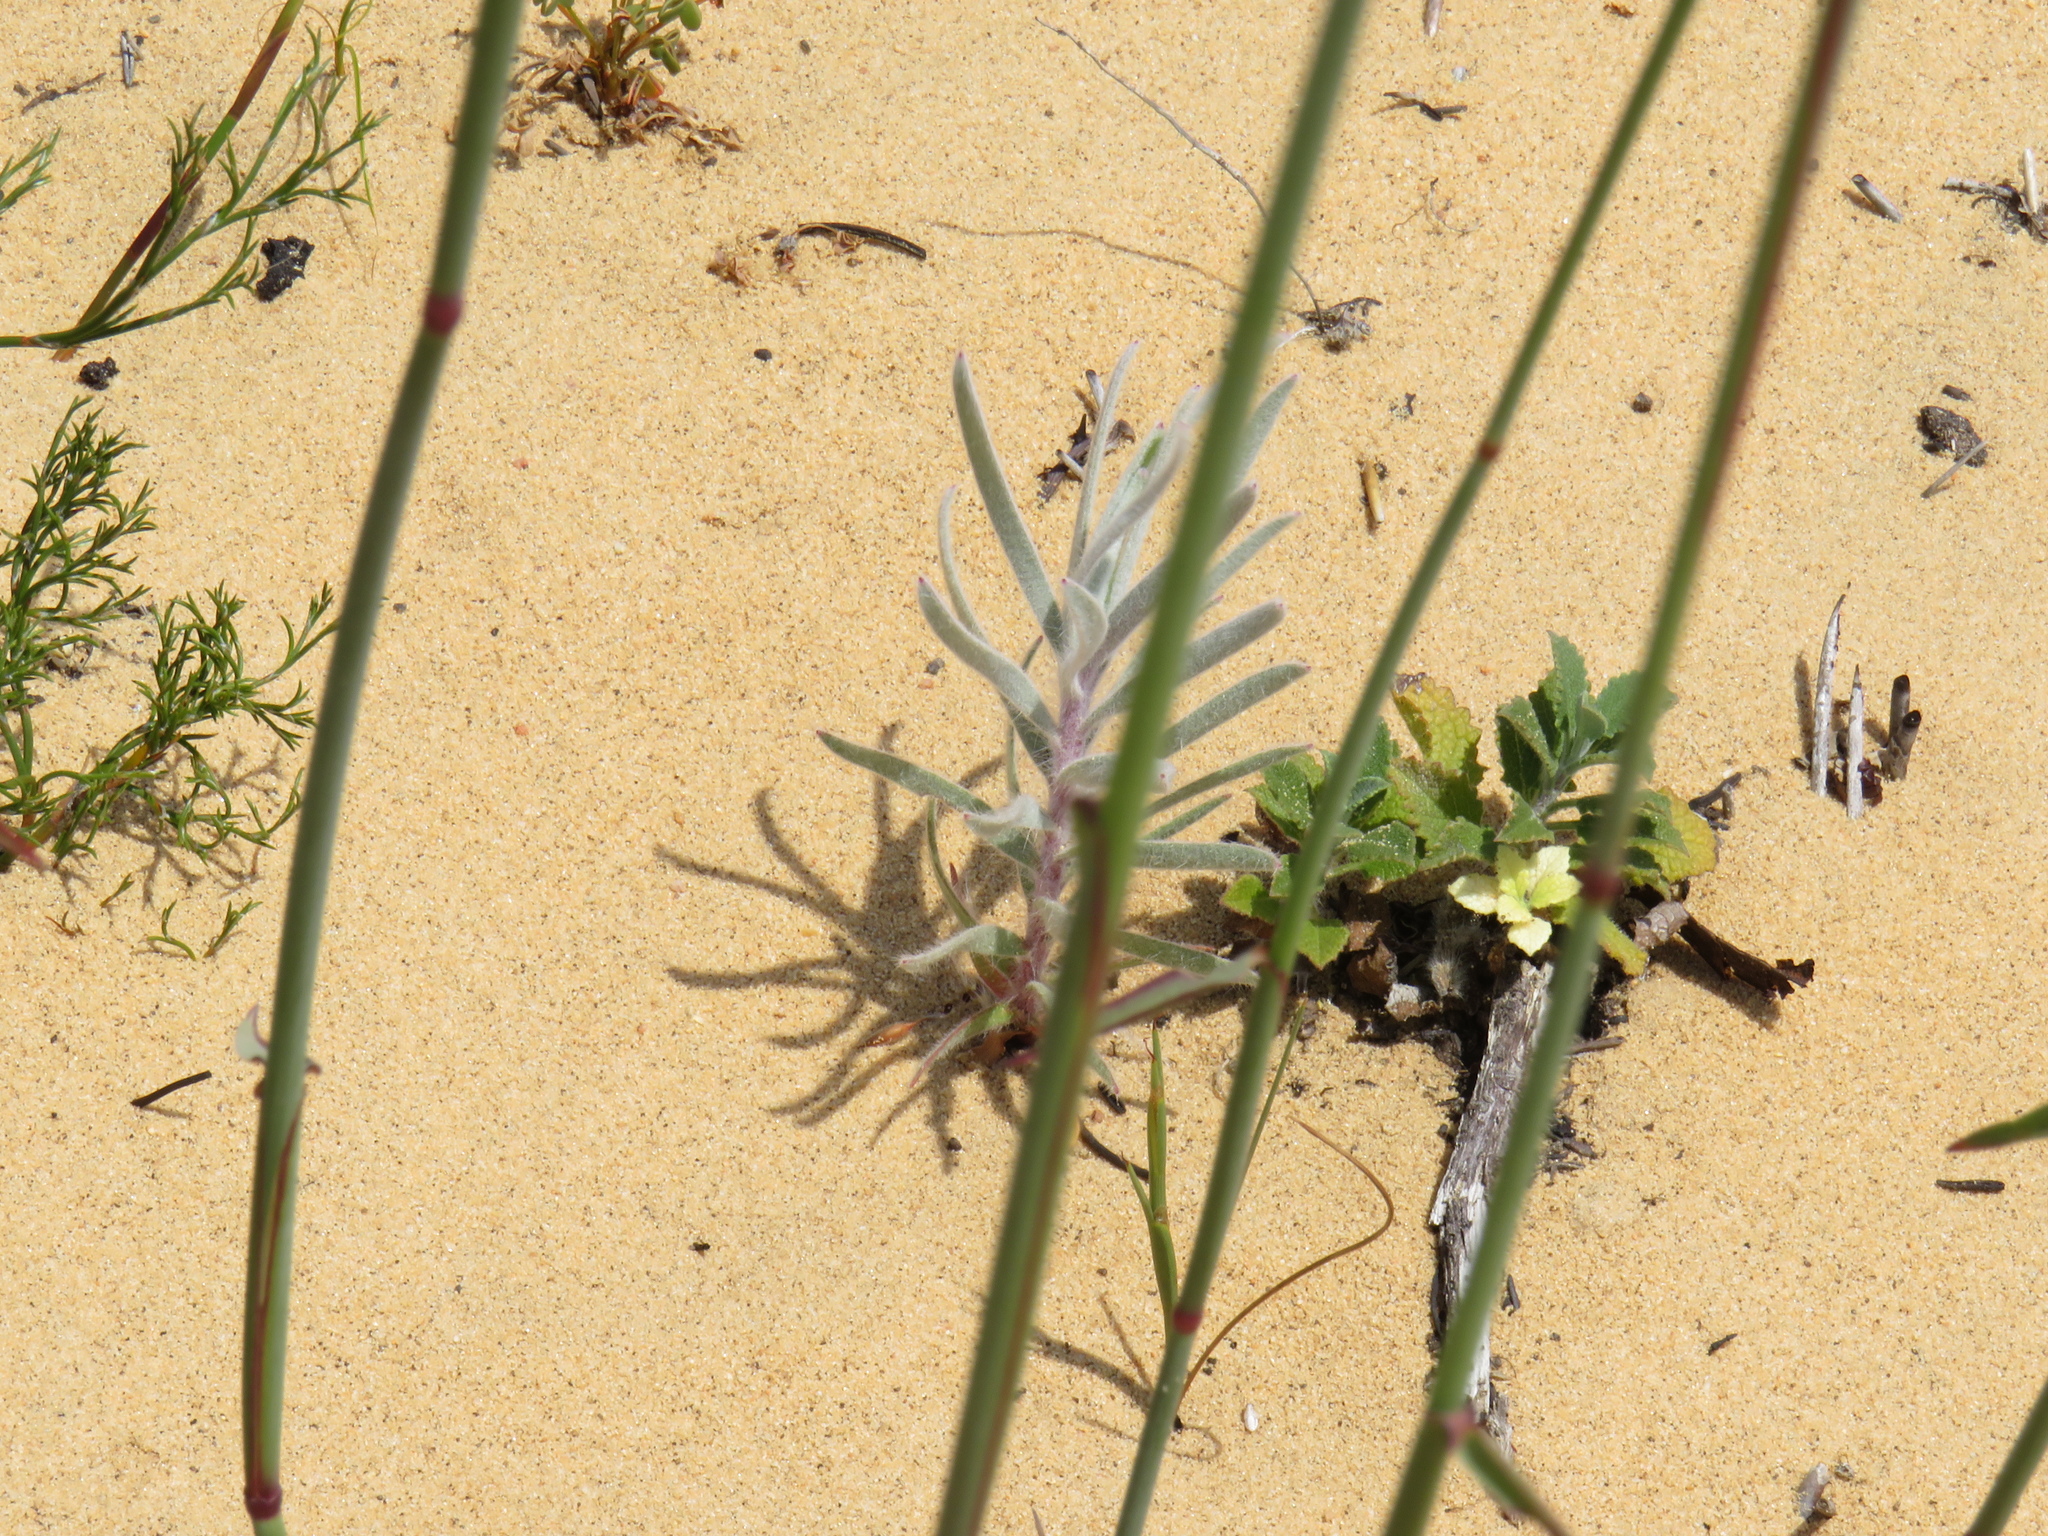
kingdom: Plantae
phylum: Tracheophyta
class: Magnoliopsida
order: Proteales
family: Proteaceae
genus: Leucospermum
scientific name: Leucospermum parile
